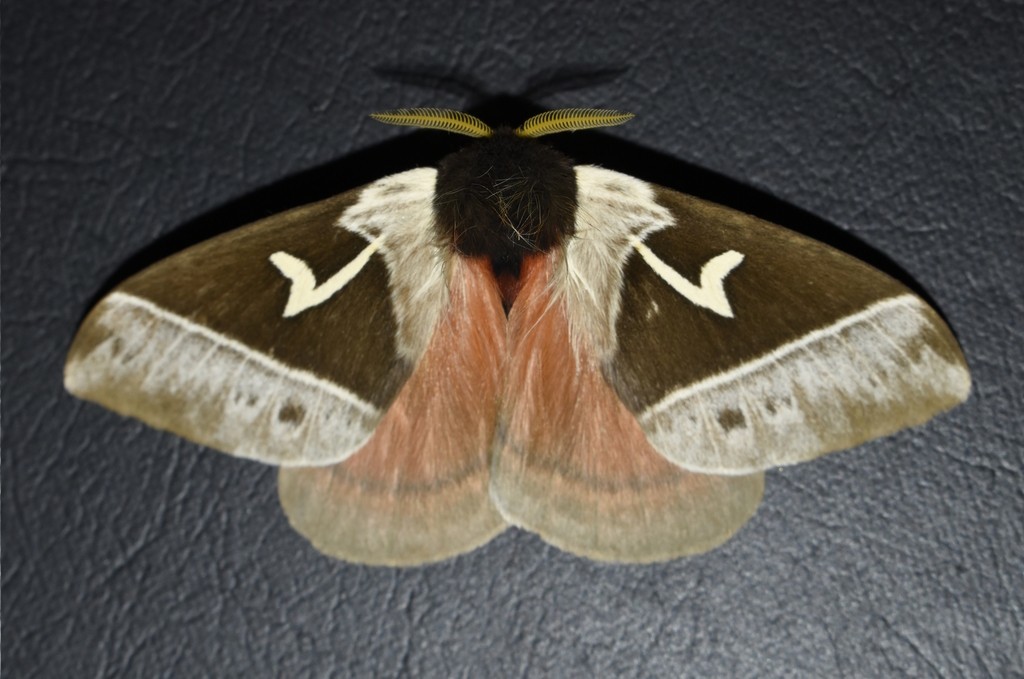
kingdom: Animalia
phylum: Arthropoda
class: Insecta
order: Lepidoptera
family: Saturniidae
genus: Dirphia
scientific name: Dirphia crassifurca
